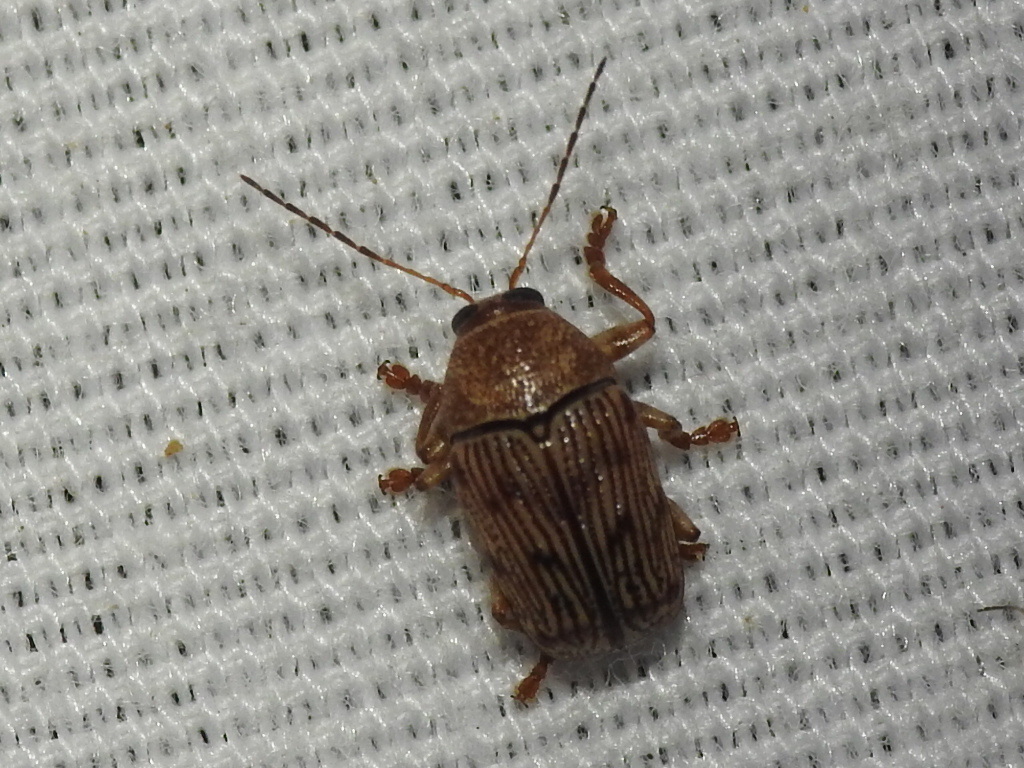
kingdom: Animalia
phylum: Arthropoda
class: Insecta
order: Coleoptera
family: Chrysomelidae
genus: Cryptocephalus
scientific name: Cryptocephalus implacidus
